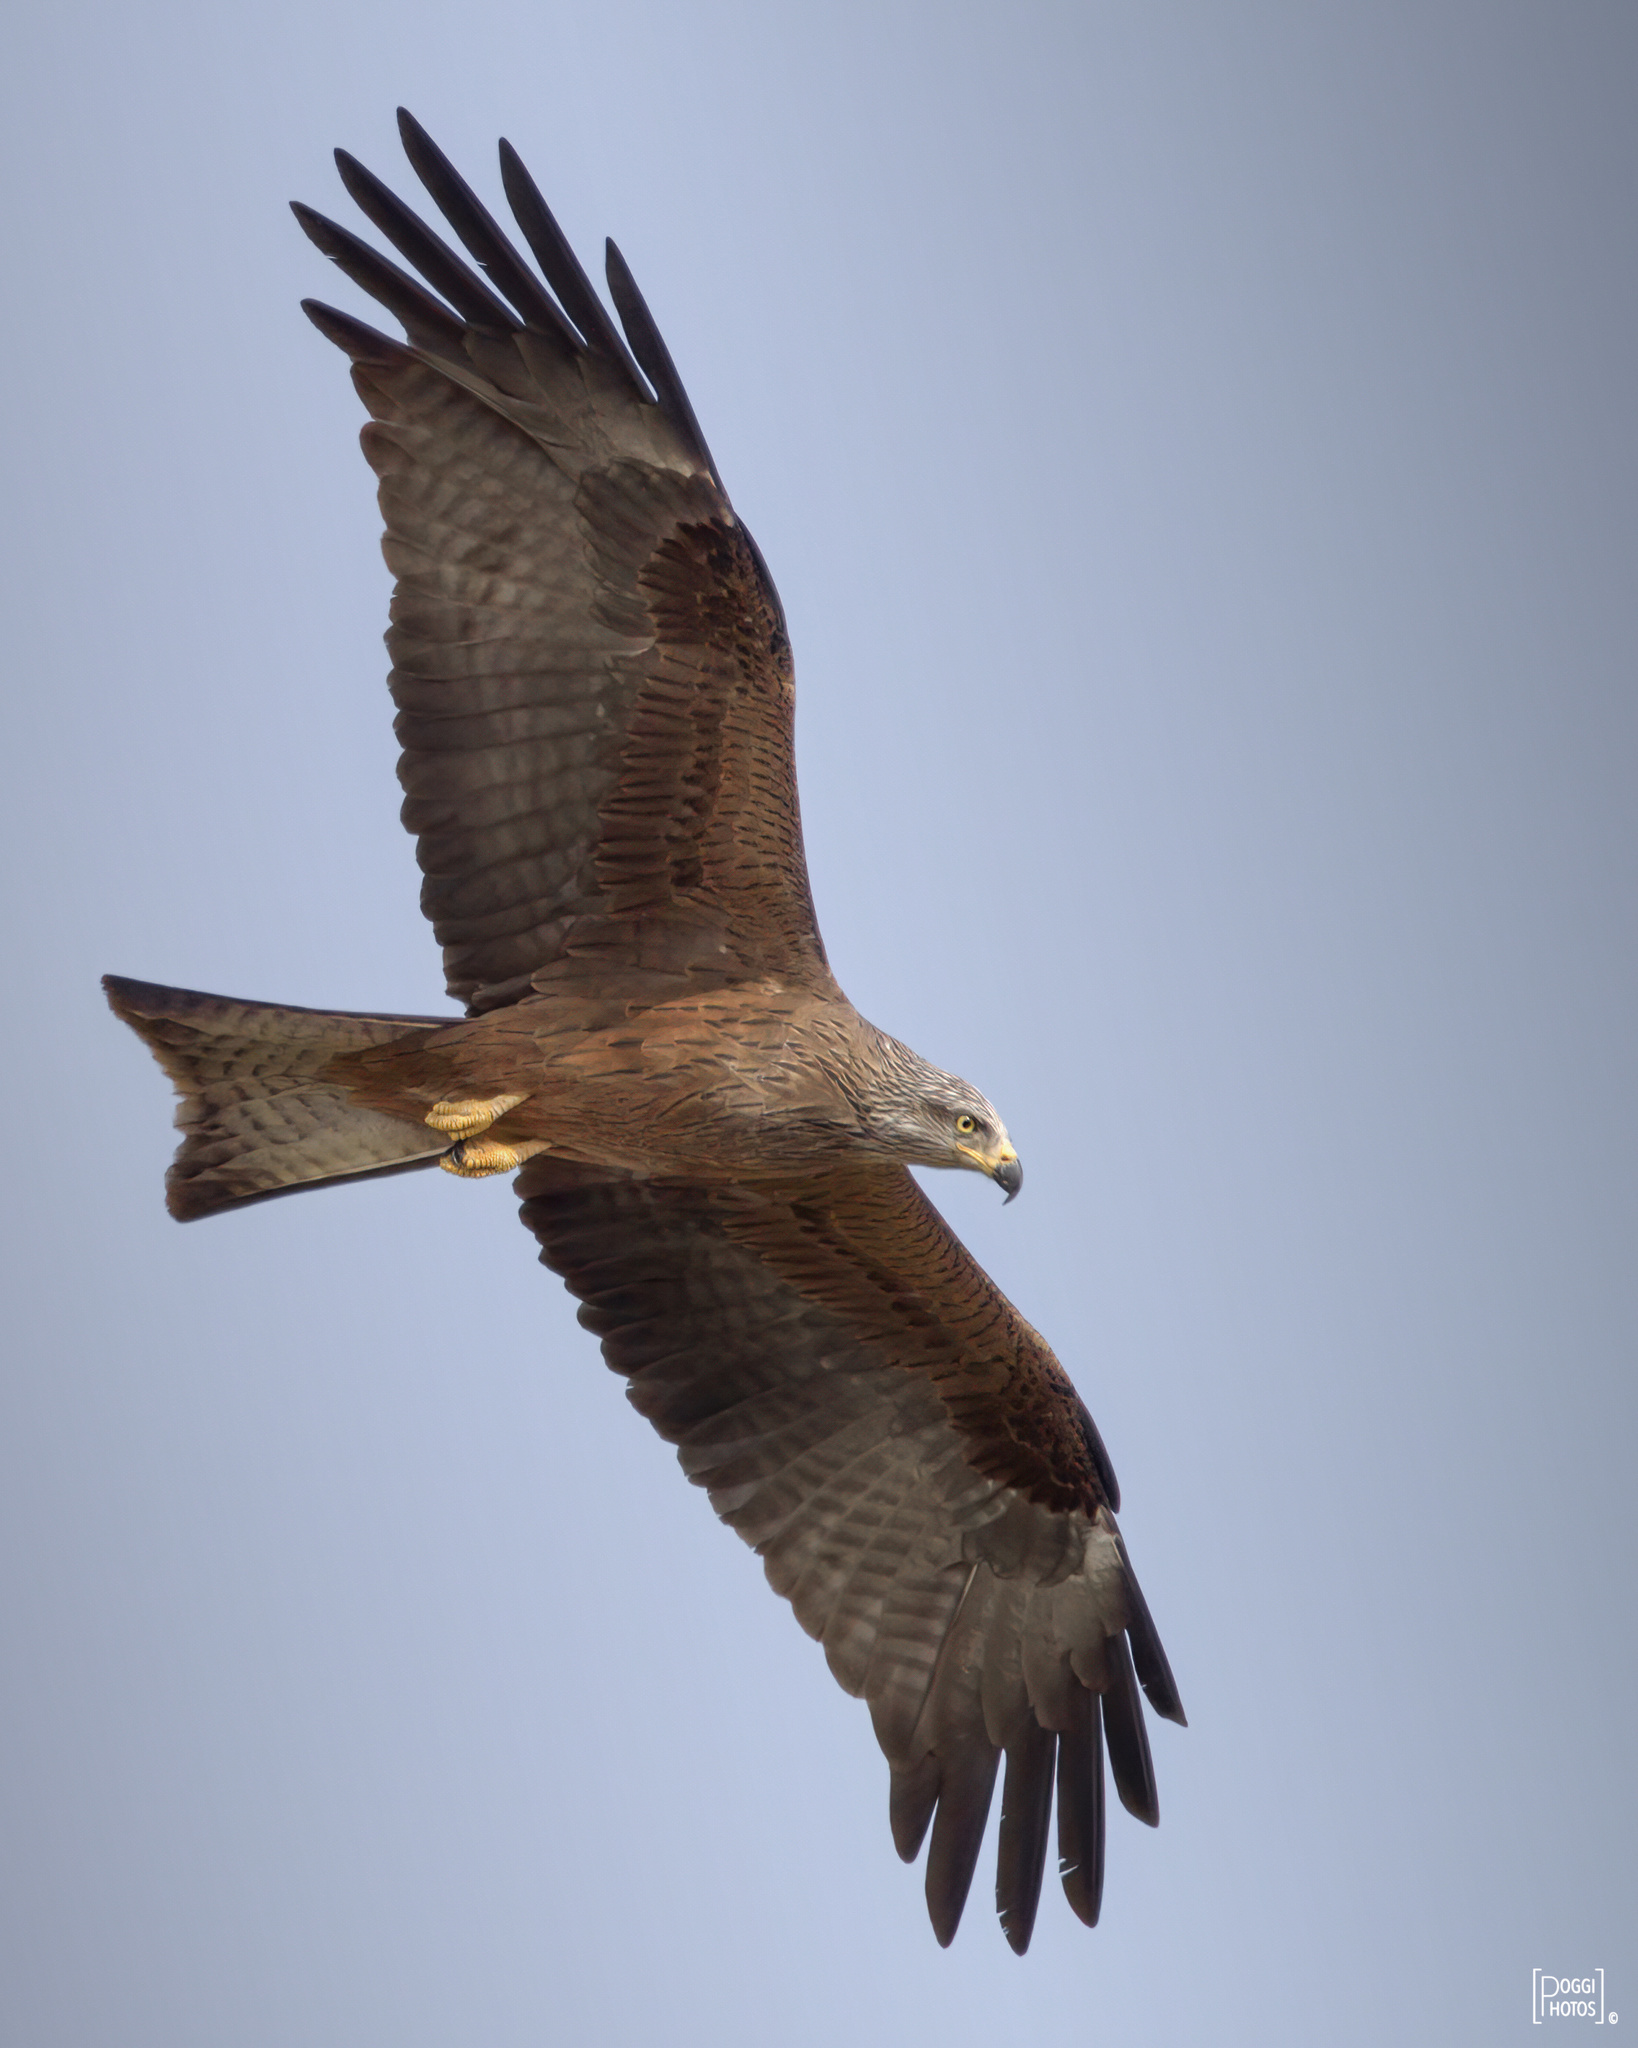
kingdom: Animalia
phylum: Chordata
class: Aves
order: Accipitriformes
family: Accipitridae
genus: Milvus
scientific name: Milvus migrans
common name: Black kite
